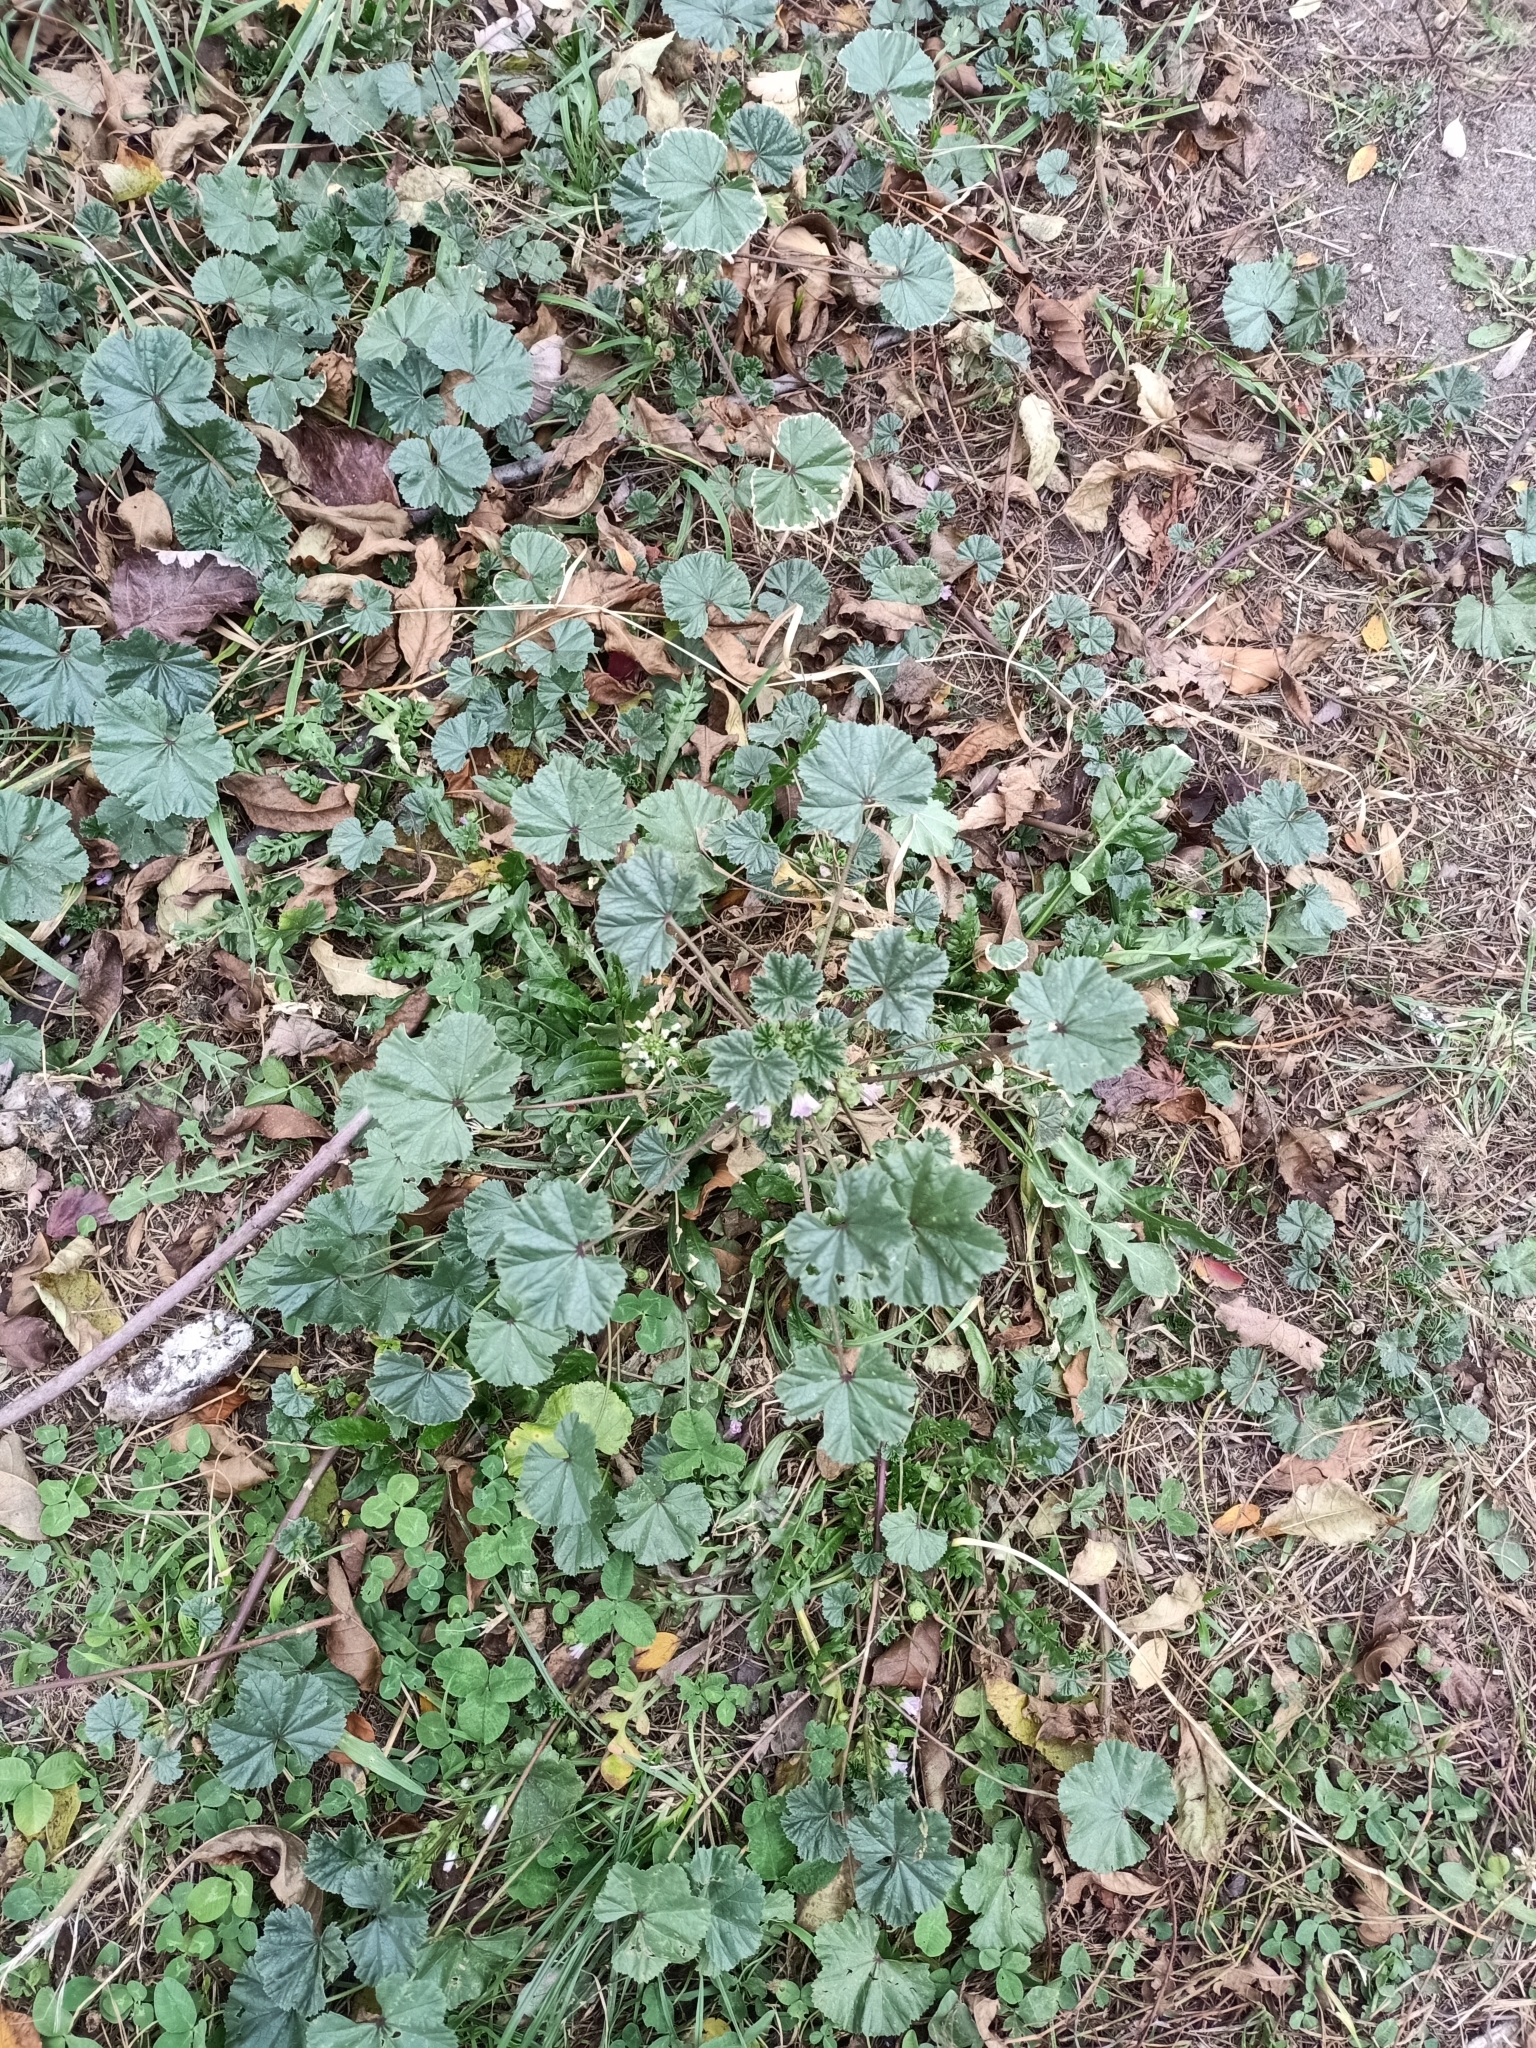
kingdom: Plantae
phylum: Tracheophyta
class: Magnoliopsida
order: Malvales
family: Malvaceae
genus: Malva
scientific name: Malva neglecta
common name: Common mallow
